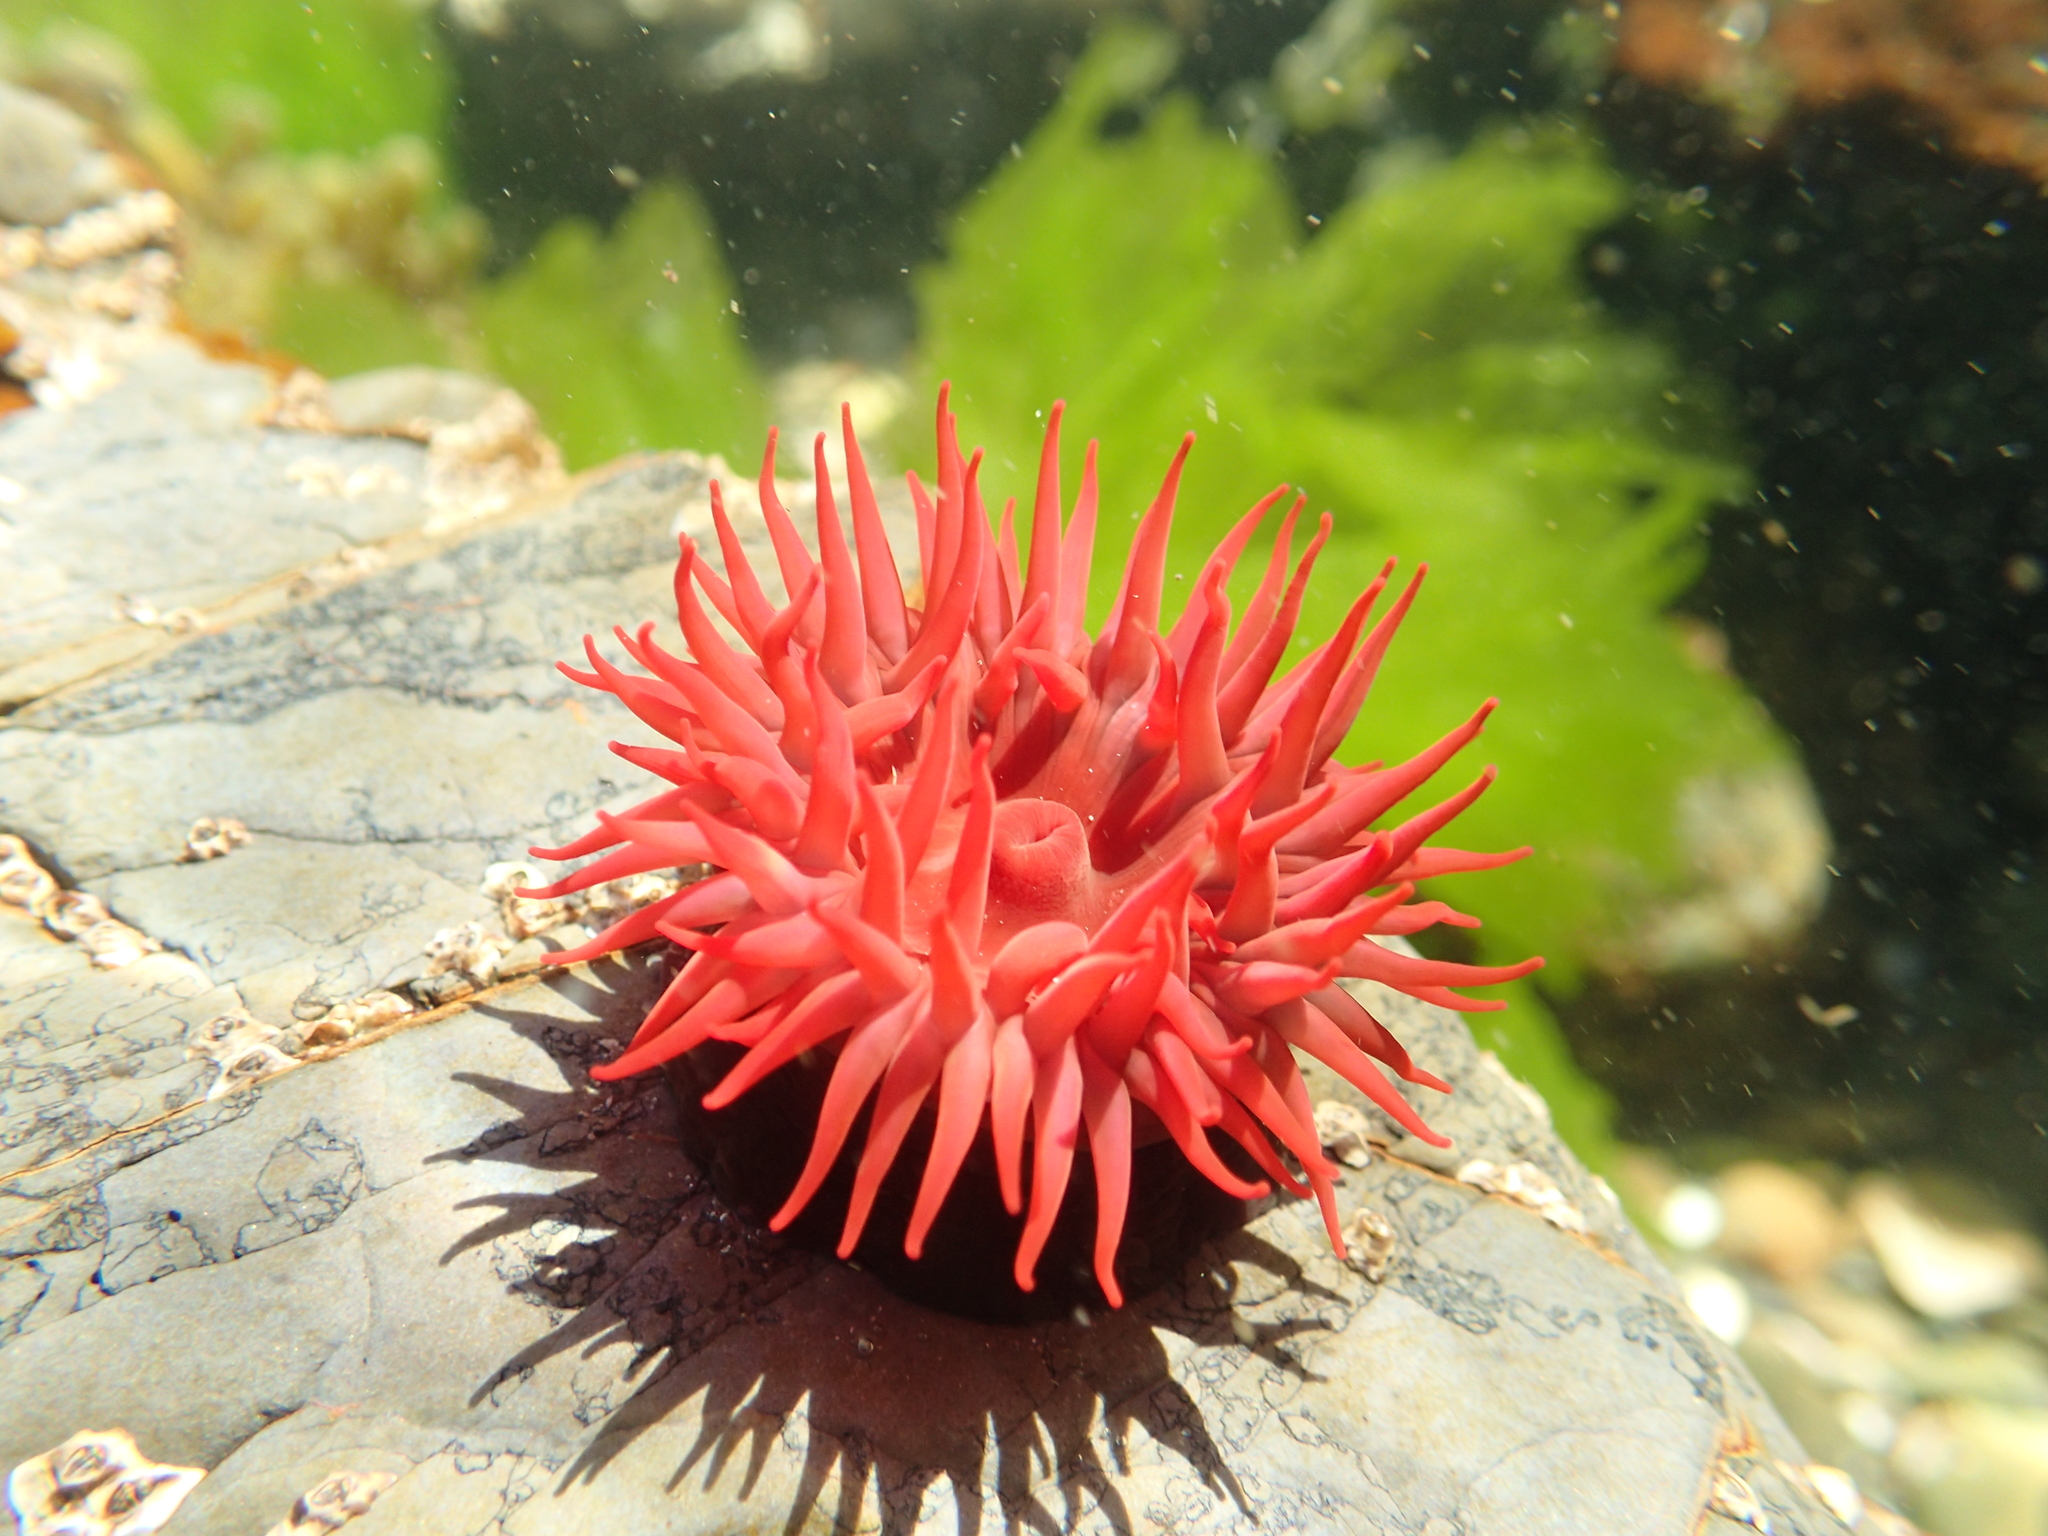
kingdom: Animalia
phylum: Cnidaria
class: Anthozoa
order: Actiniaria
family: Actiniidae
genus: Actinia
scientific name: Actinia tenebrosa
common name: Waratah anemone
